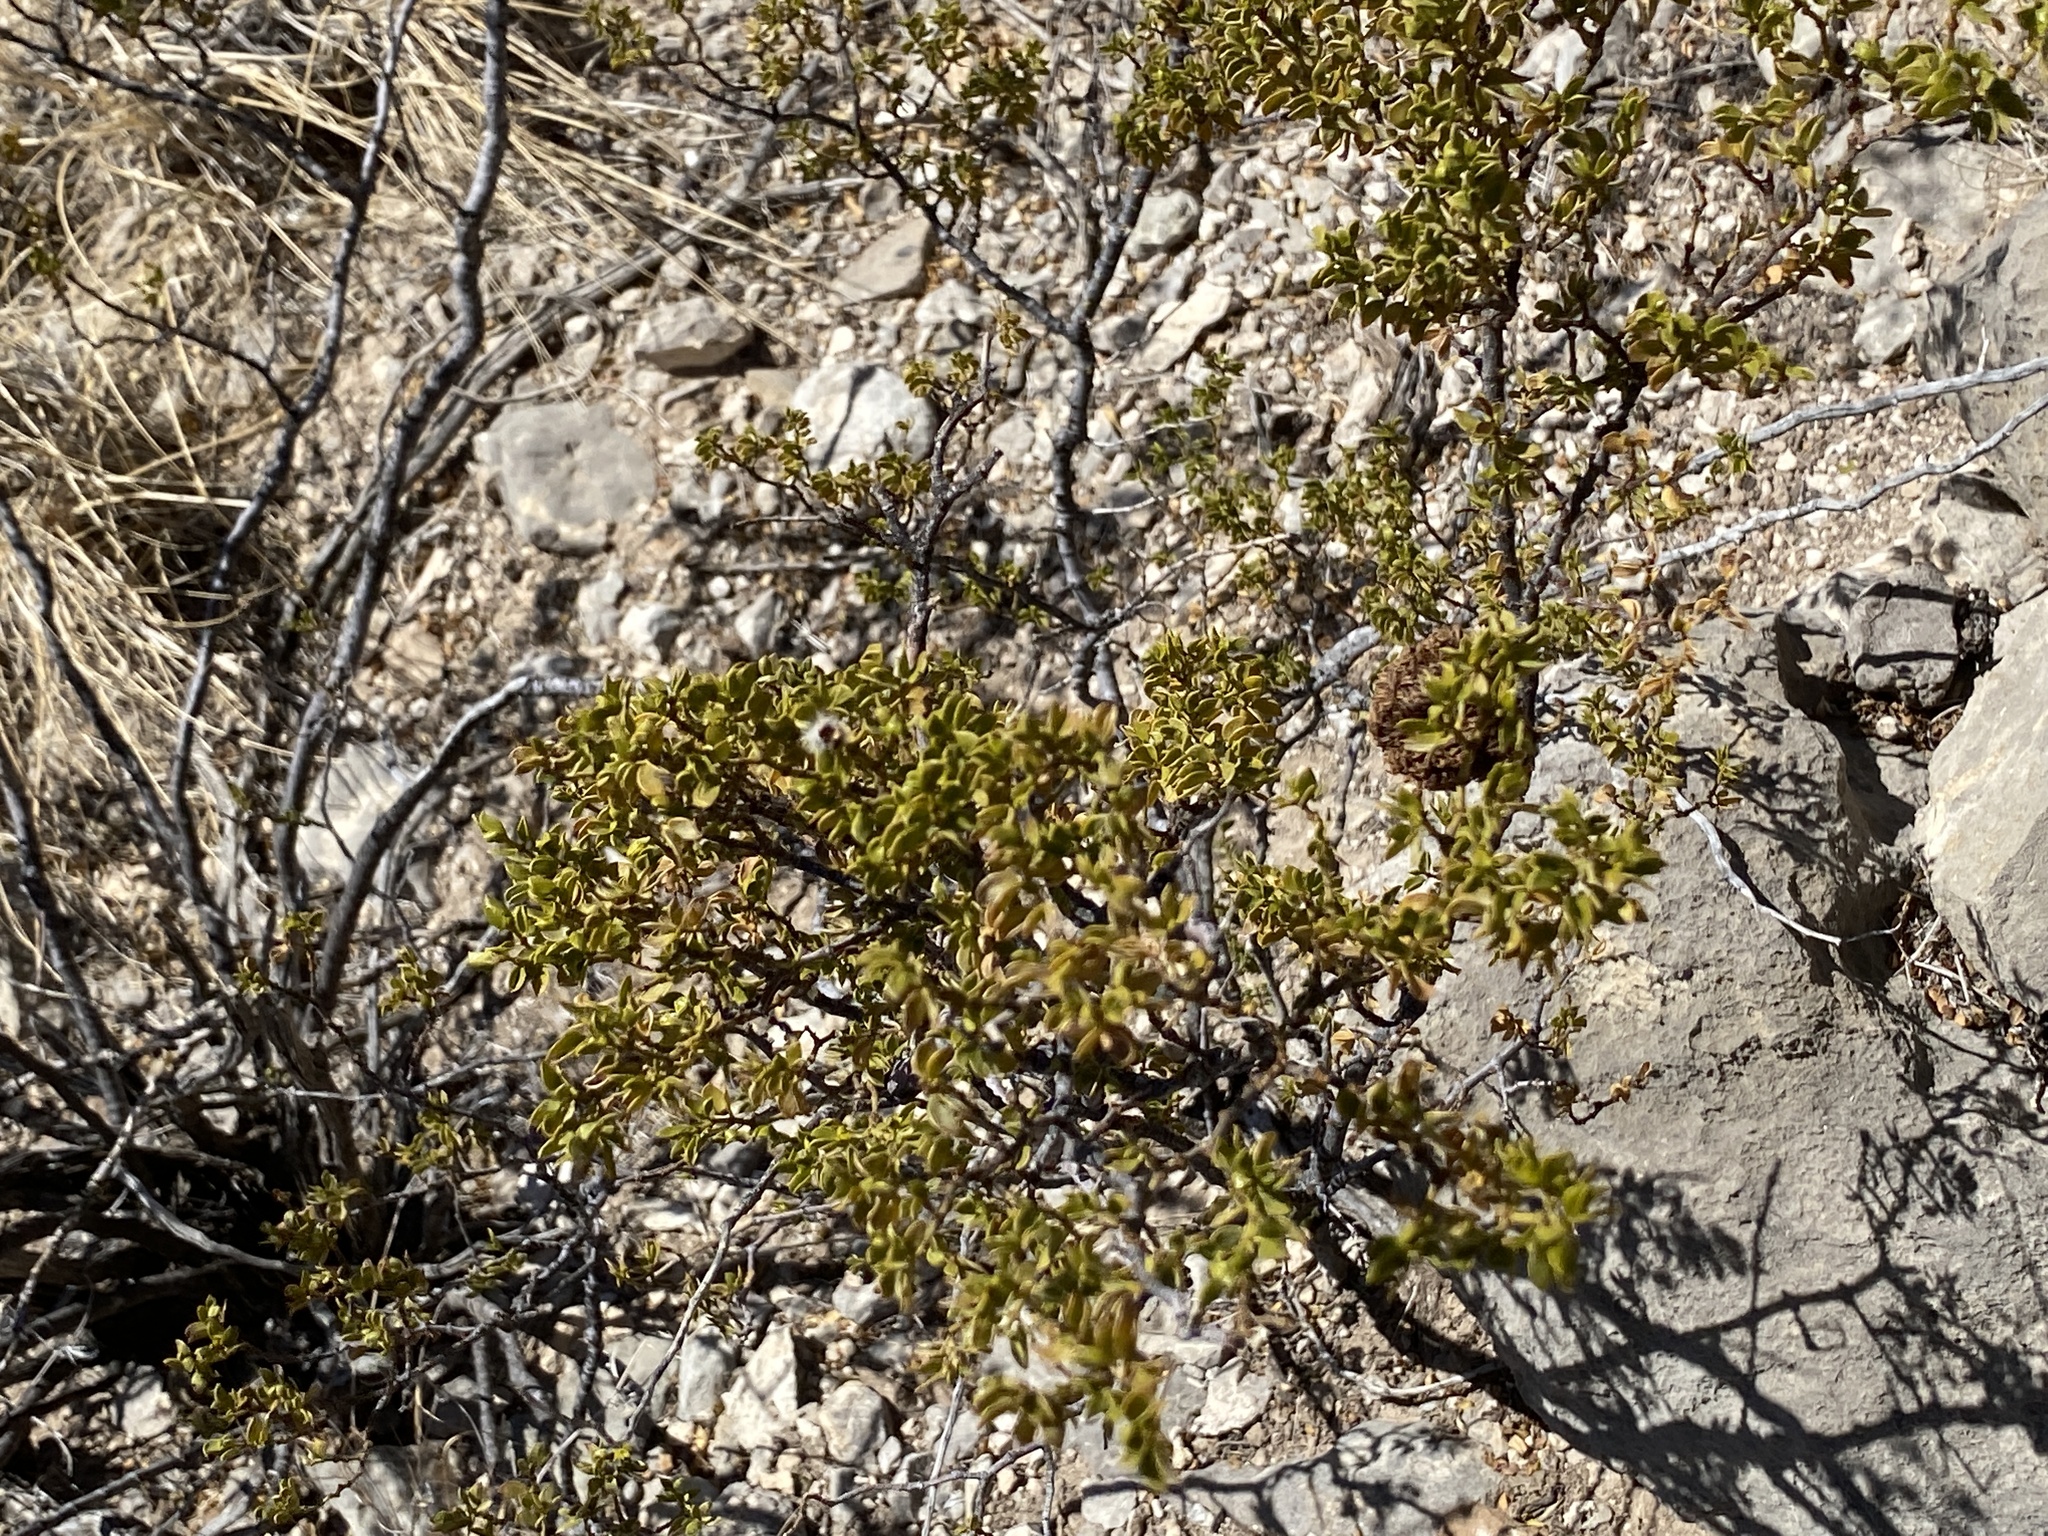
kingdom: Plantae
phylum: Tracheophyta
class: Magnoliopsida
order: Zygophyllales
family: Zygophyllaceae
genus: Larrea
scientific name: Larrea tridentata
